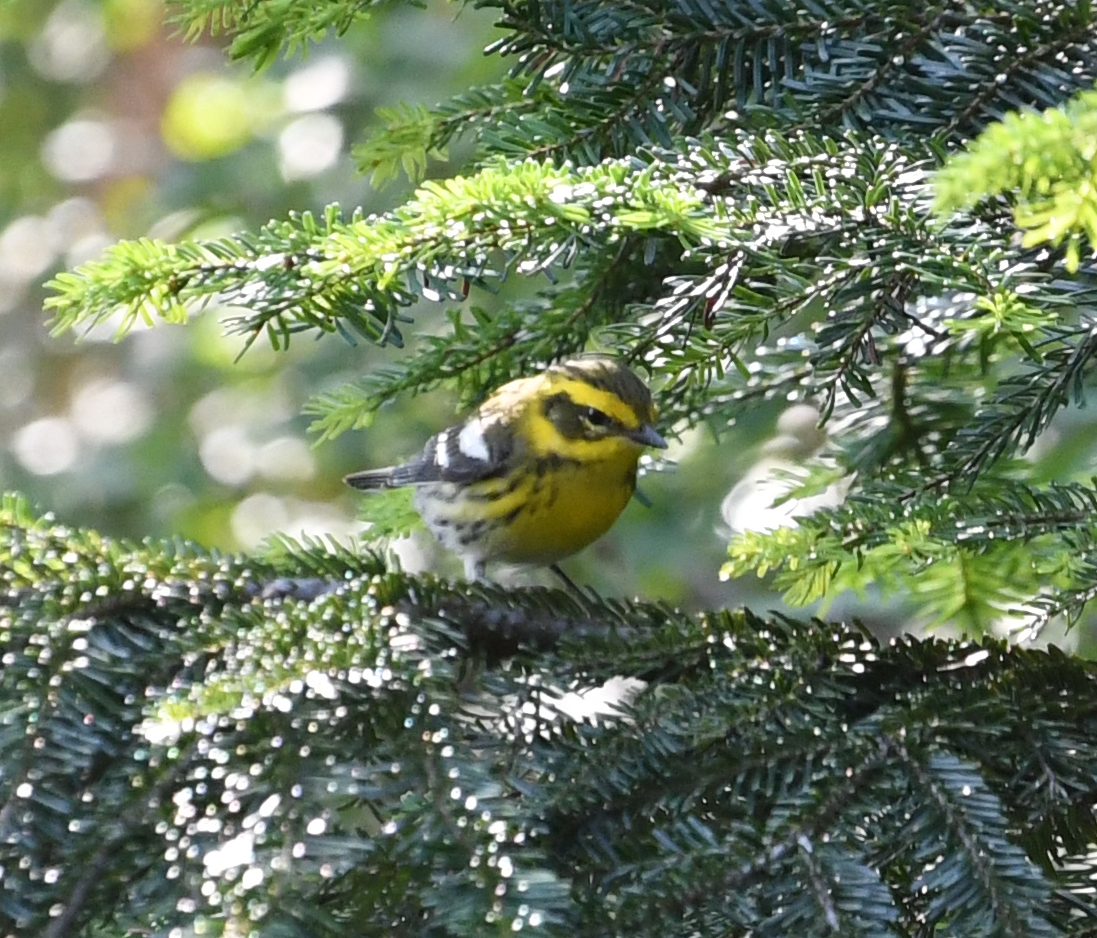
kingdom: Animalia
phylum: Chordata
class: Aves
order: Passeriformes
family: Parulidae
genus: Setophaga
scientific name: Setophaga townsendi
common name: Townsend's warbler
